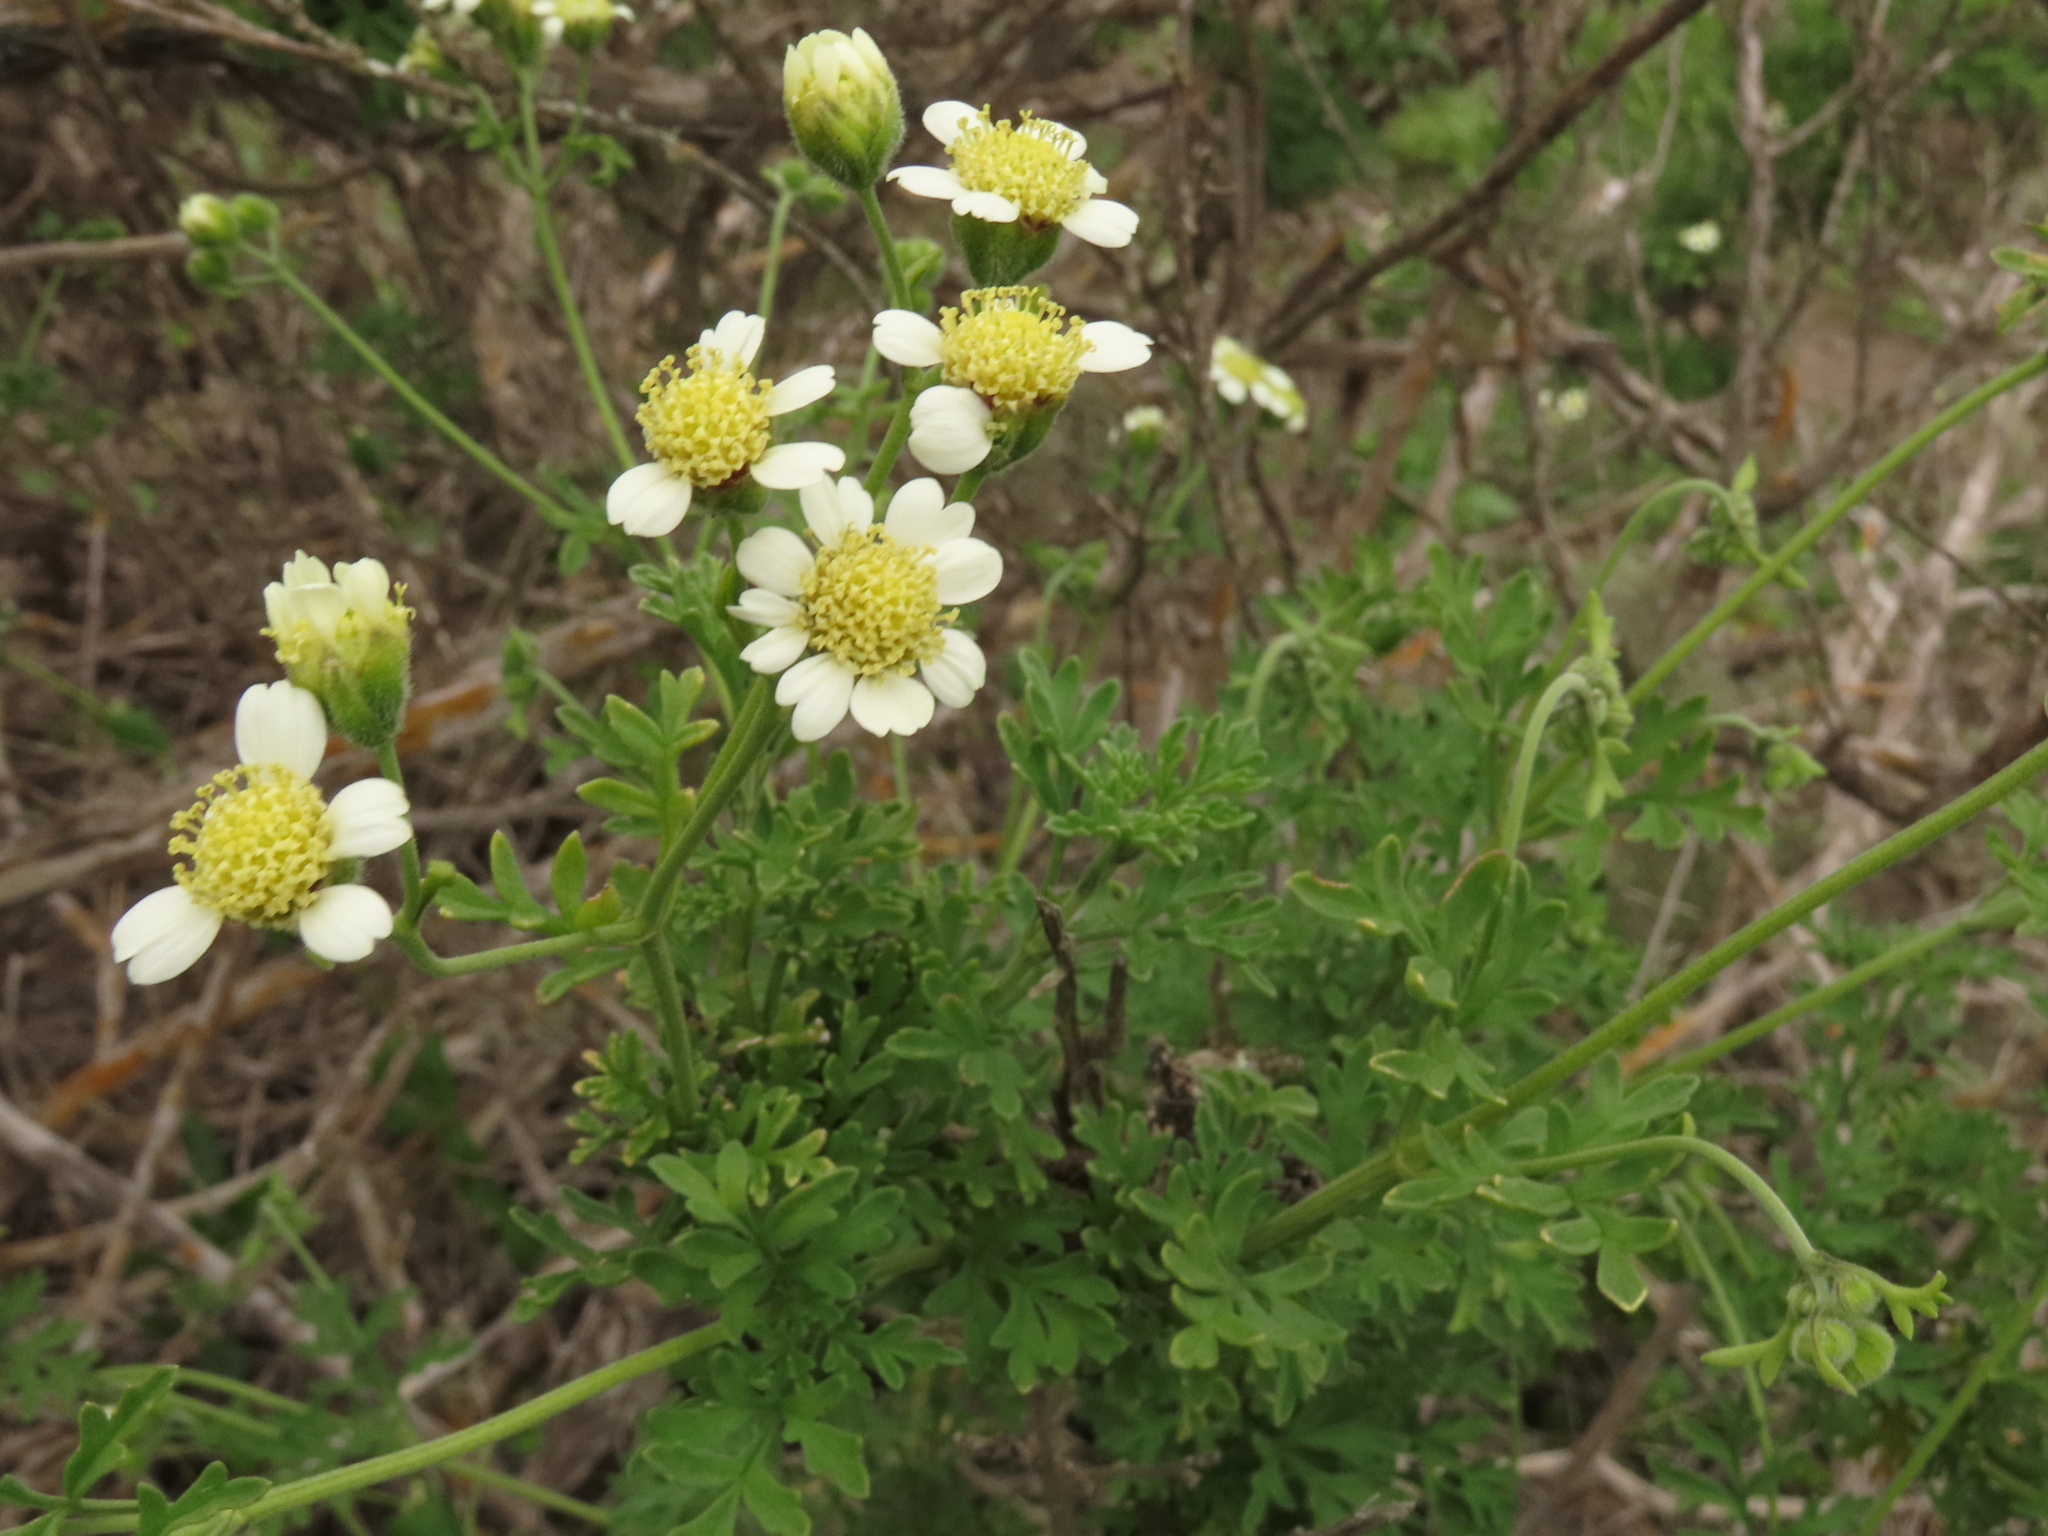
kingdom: Plantae
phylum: Tracheophyta
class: Magnoliopsida
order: Asterales
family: Asteraceae
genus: Bahia
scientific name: Bahia ambrosioides
